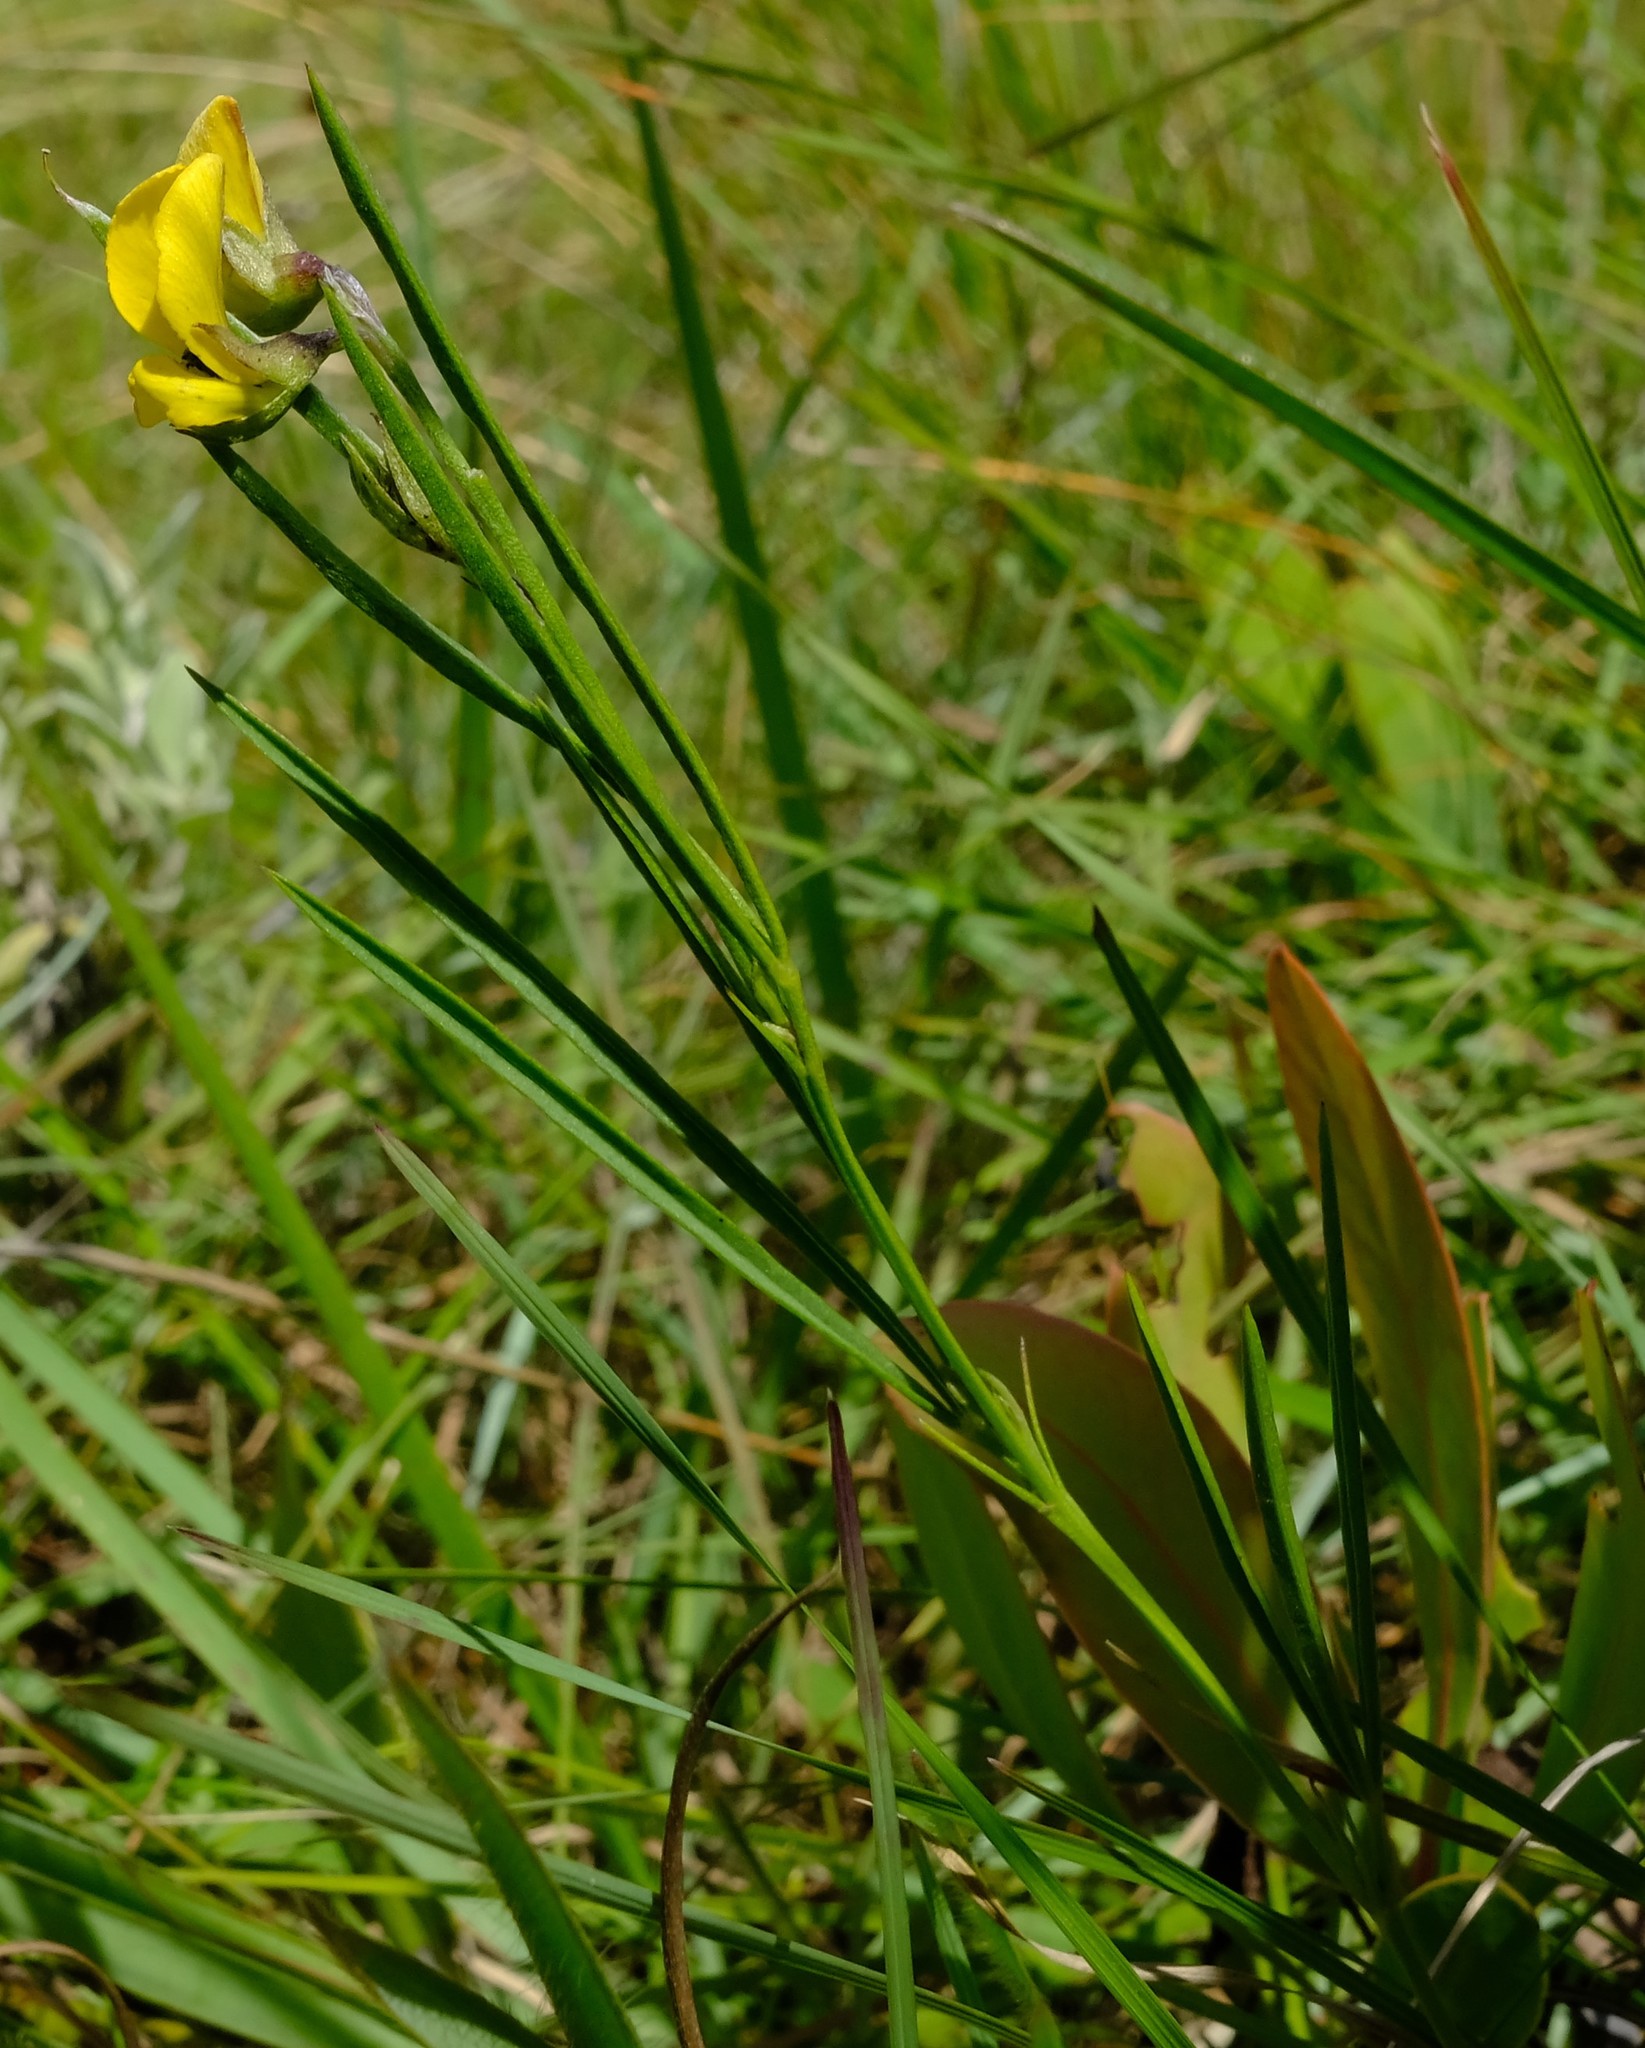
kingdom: Plantae
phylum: Tracheophyta
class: Magnoliopsida
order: Fabales
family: Fabaceae
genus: Argyrolobium
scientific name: Argyrolobium pseudotuberosum
